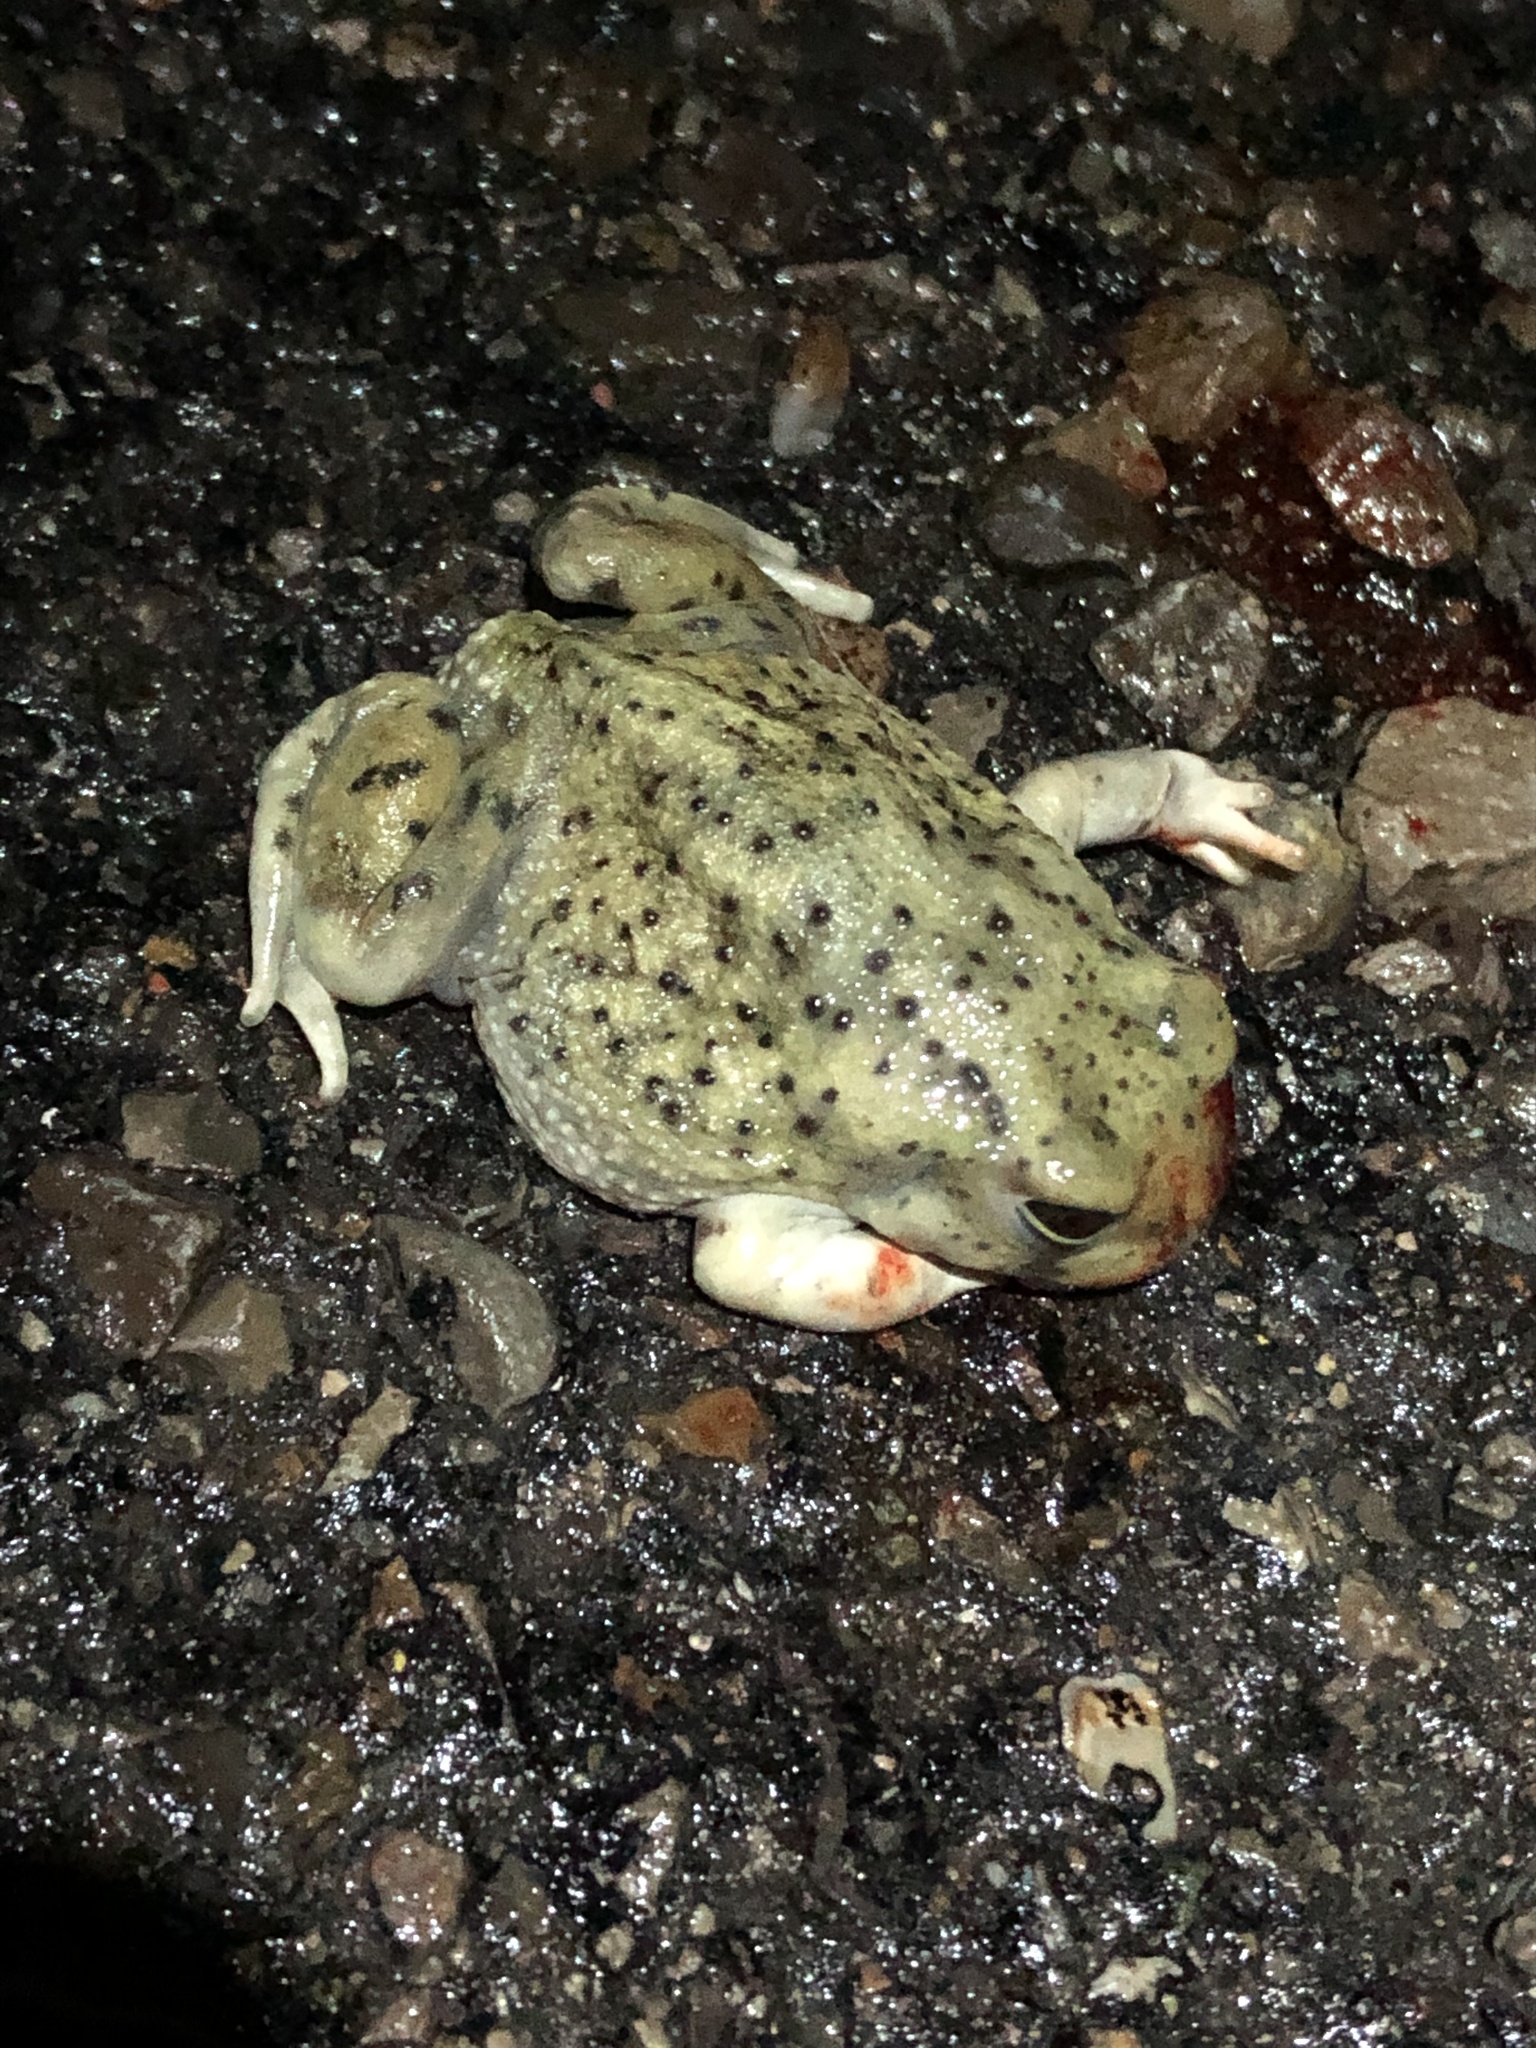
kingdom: Animalia
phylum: Chordata
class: Amphibia
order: Anura
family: Scaphiopodidae
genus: Spea
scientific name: Spea multiplicata
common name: Mexican spadefoot
